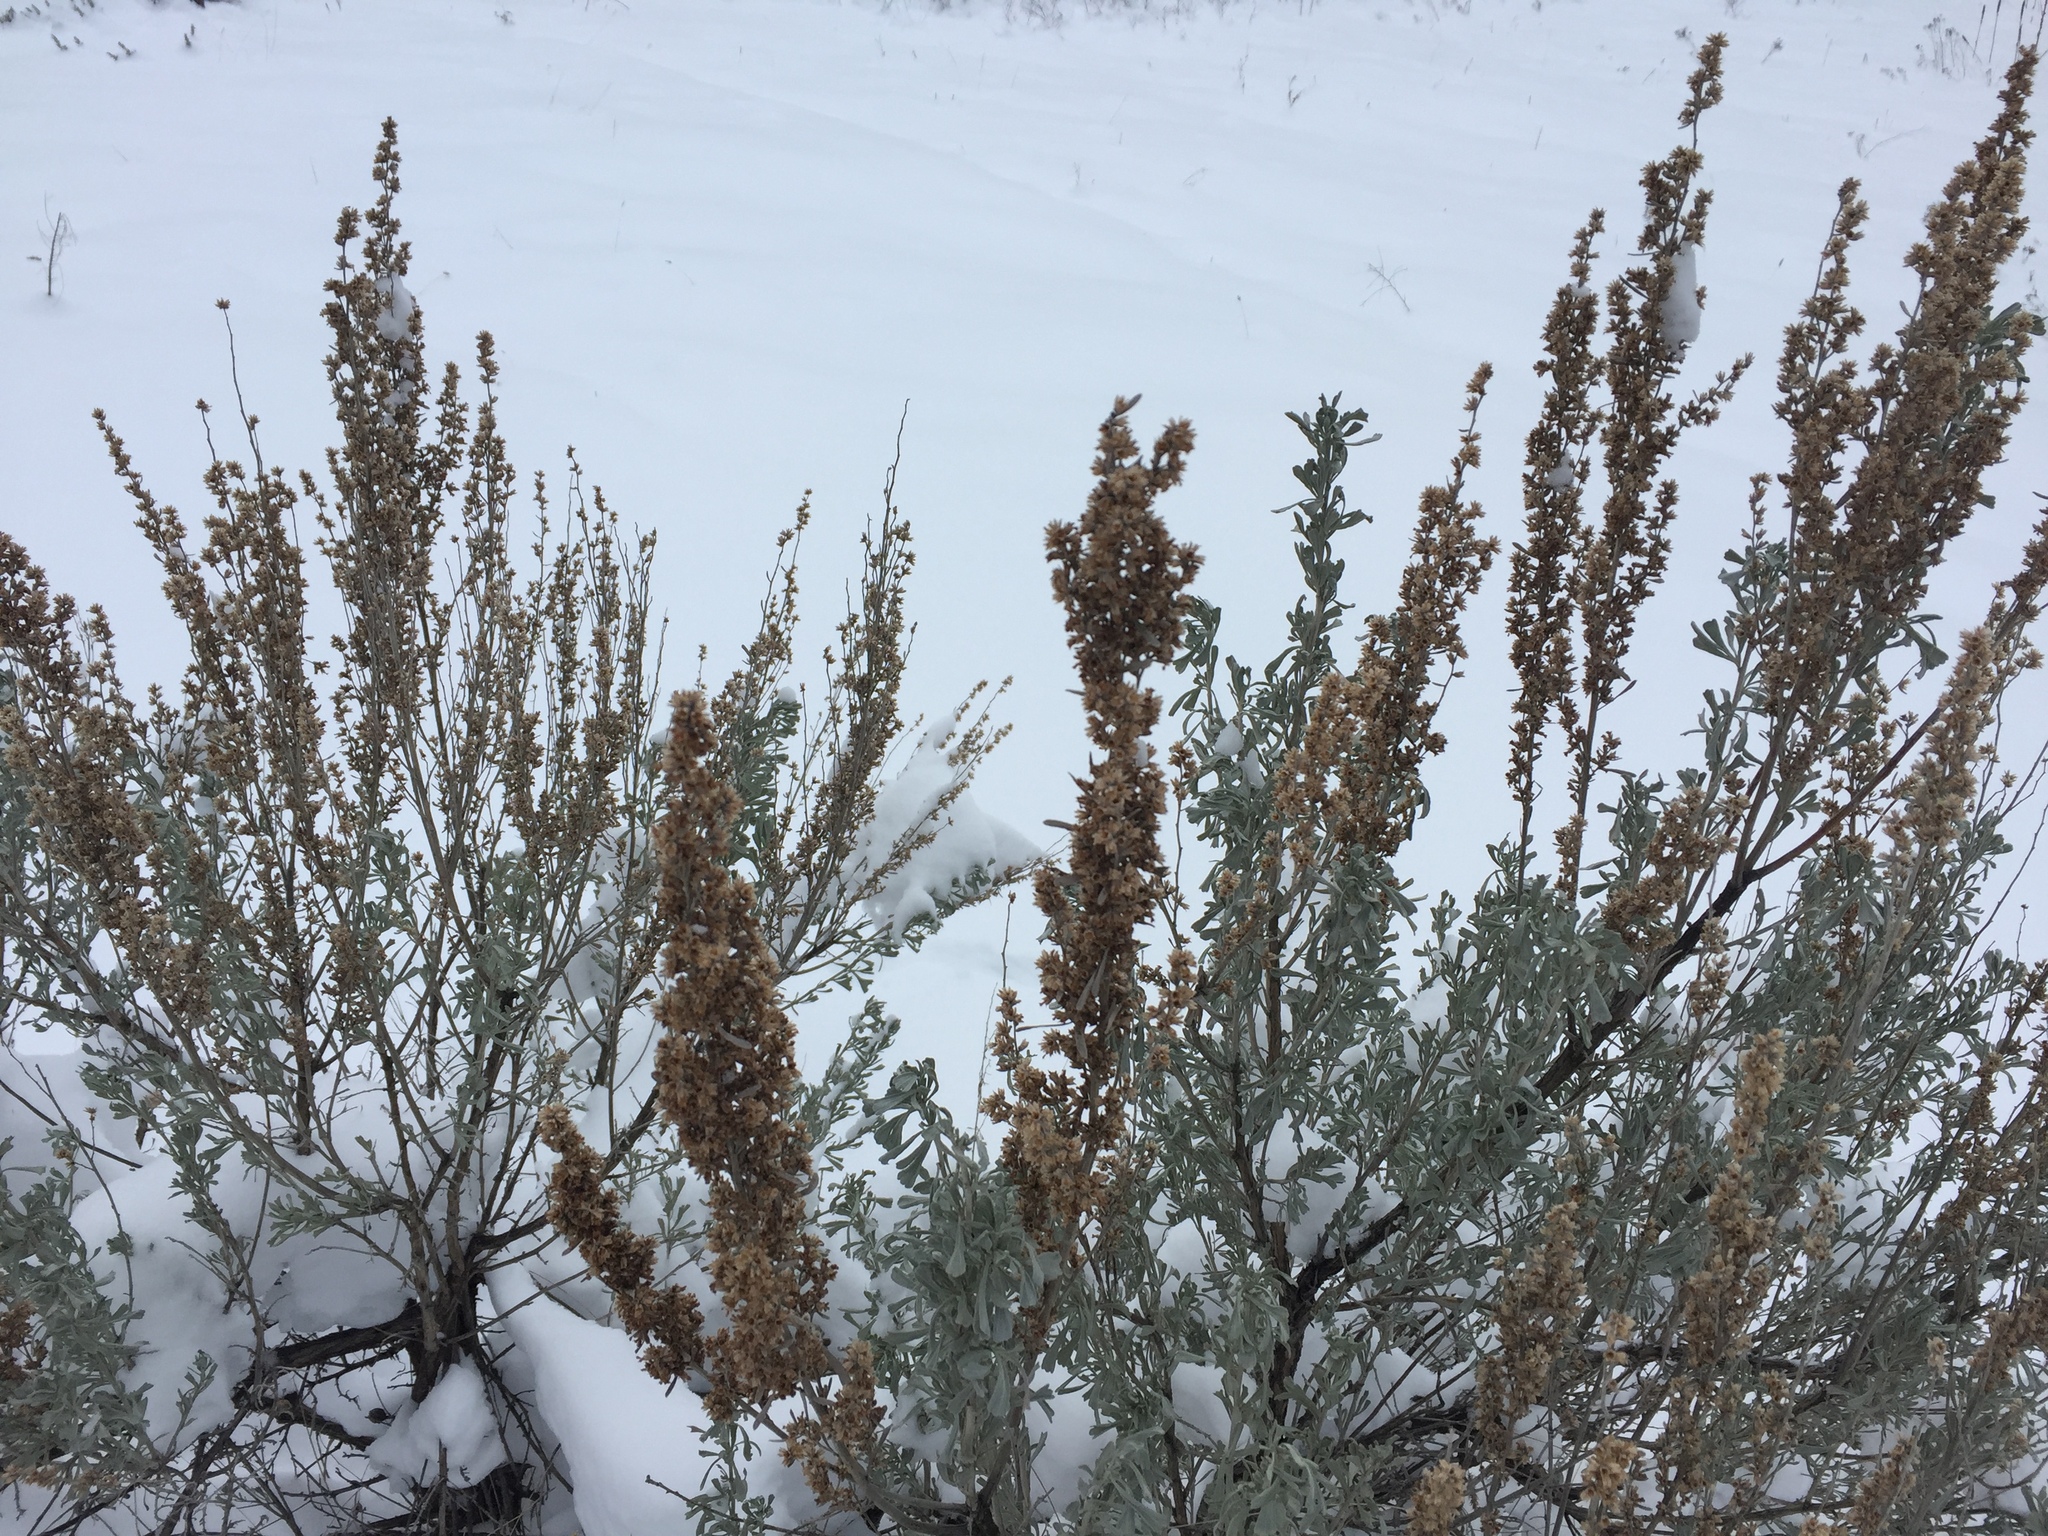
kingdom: Plantae
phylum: Tracheophyta
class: Magnoliopsida
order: Asterales
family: Asteraceae
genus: Artemisia
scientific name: Artemisia tridentata
